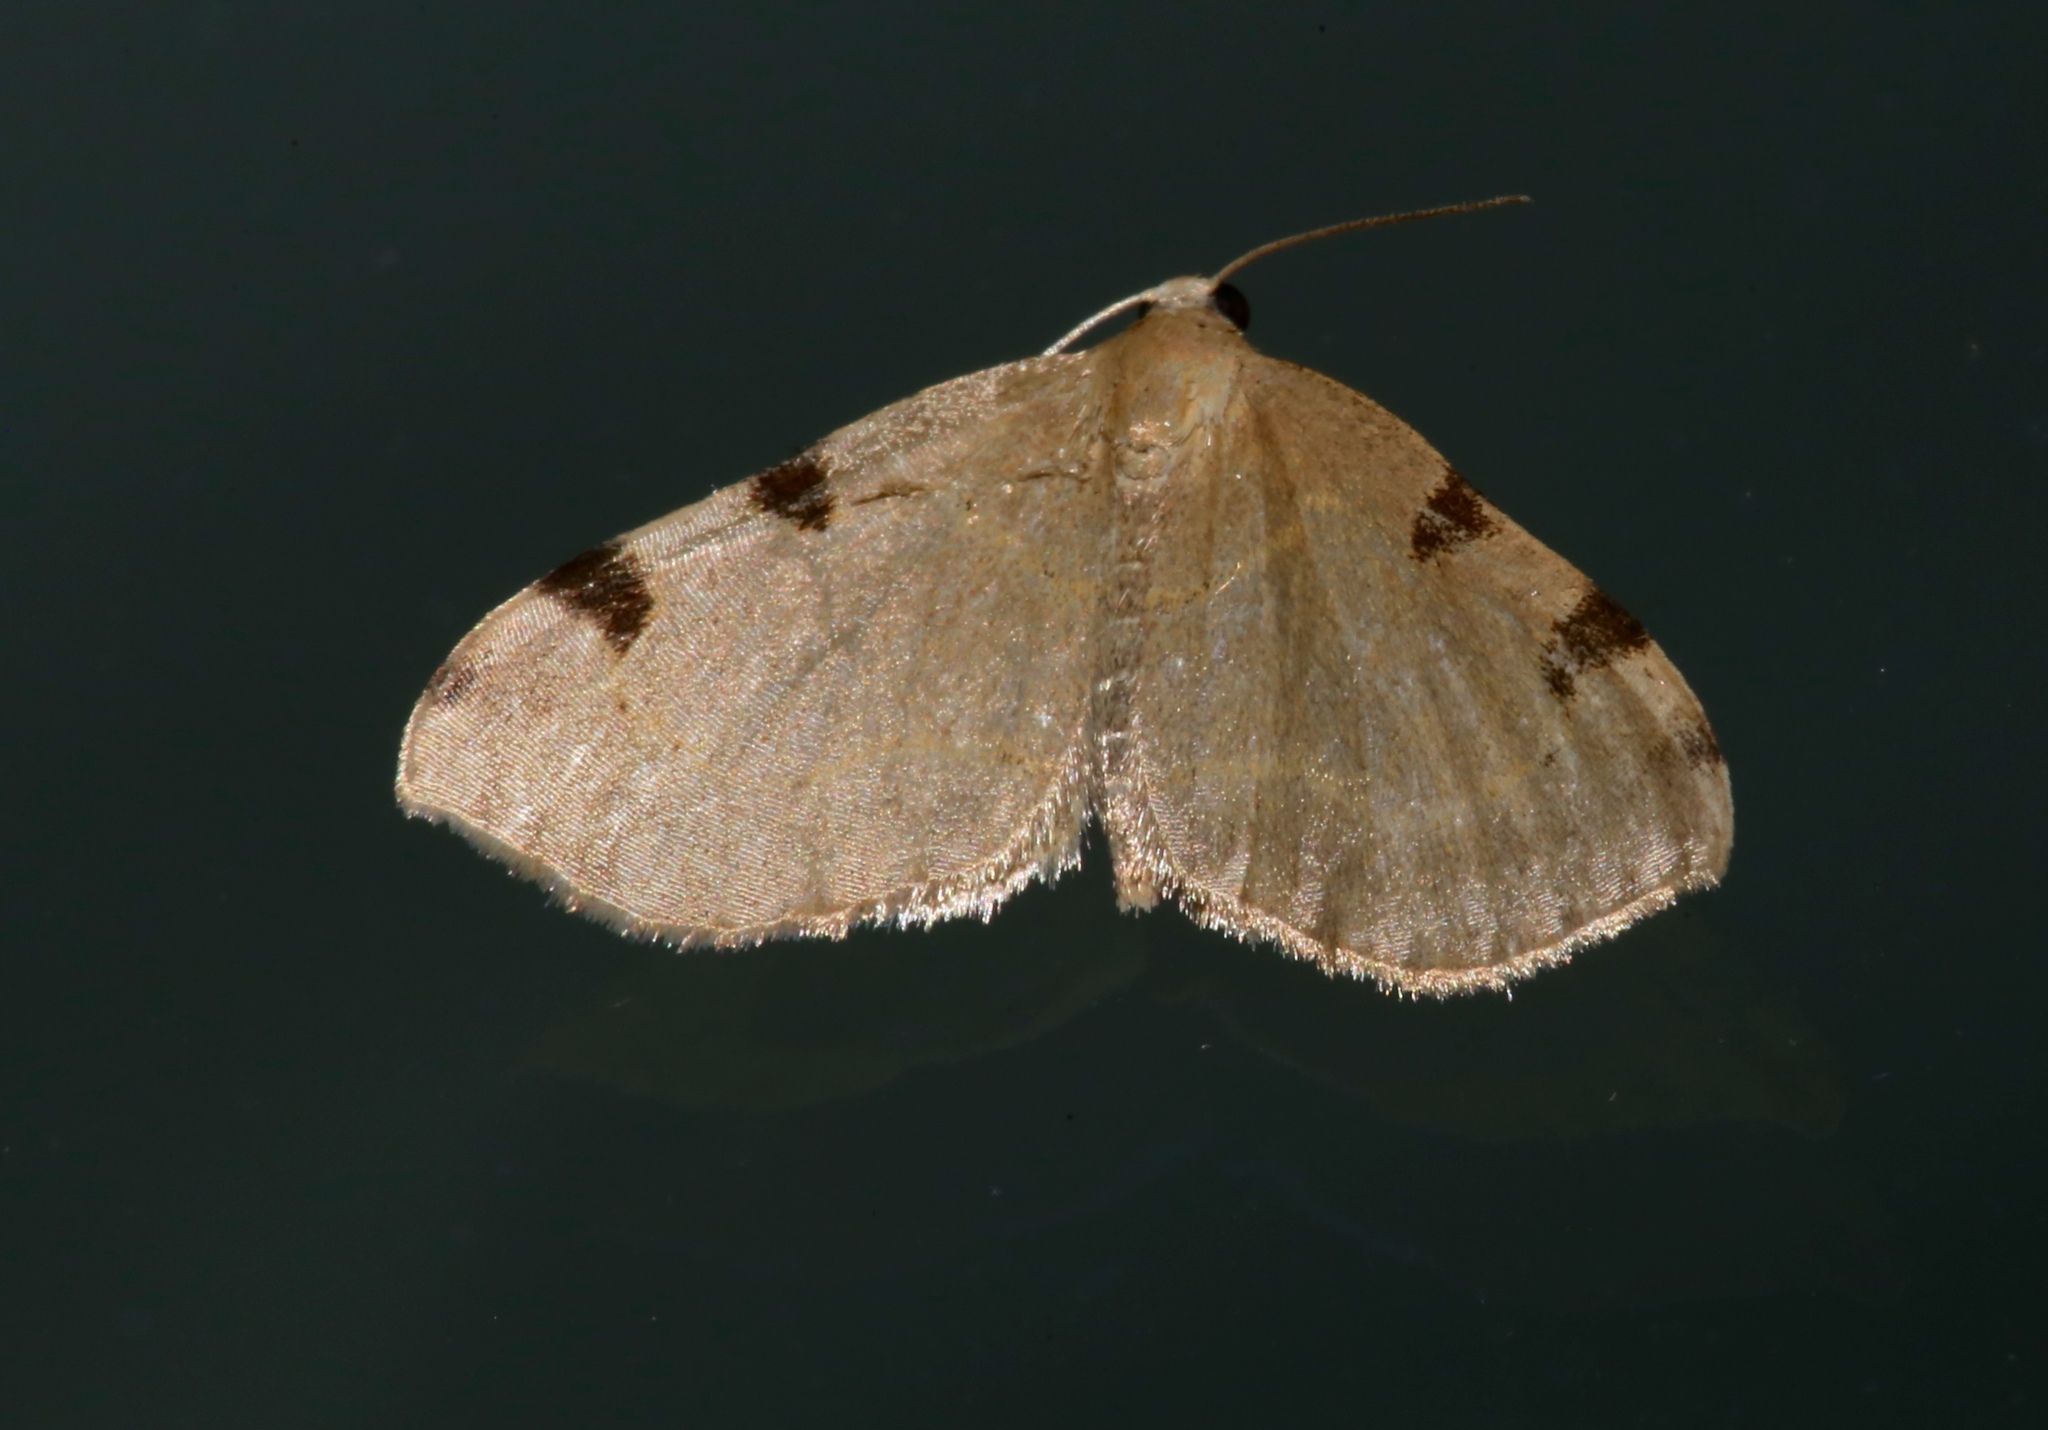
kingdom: Animalia
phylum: Arthropoda
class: Insecta
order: Lepidoptera
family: Geometridae
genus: Heterophleps
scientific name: Heterophleps triguttaria
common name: Three-spotted fillip
